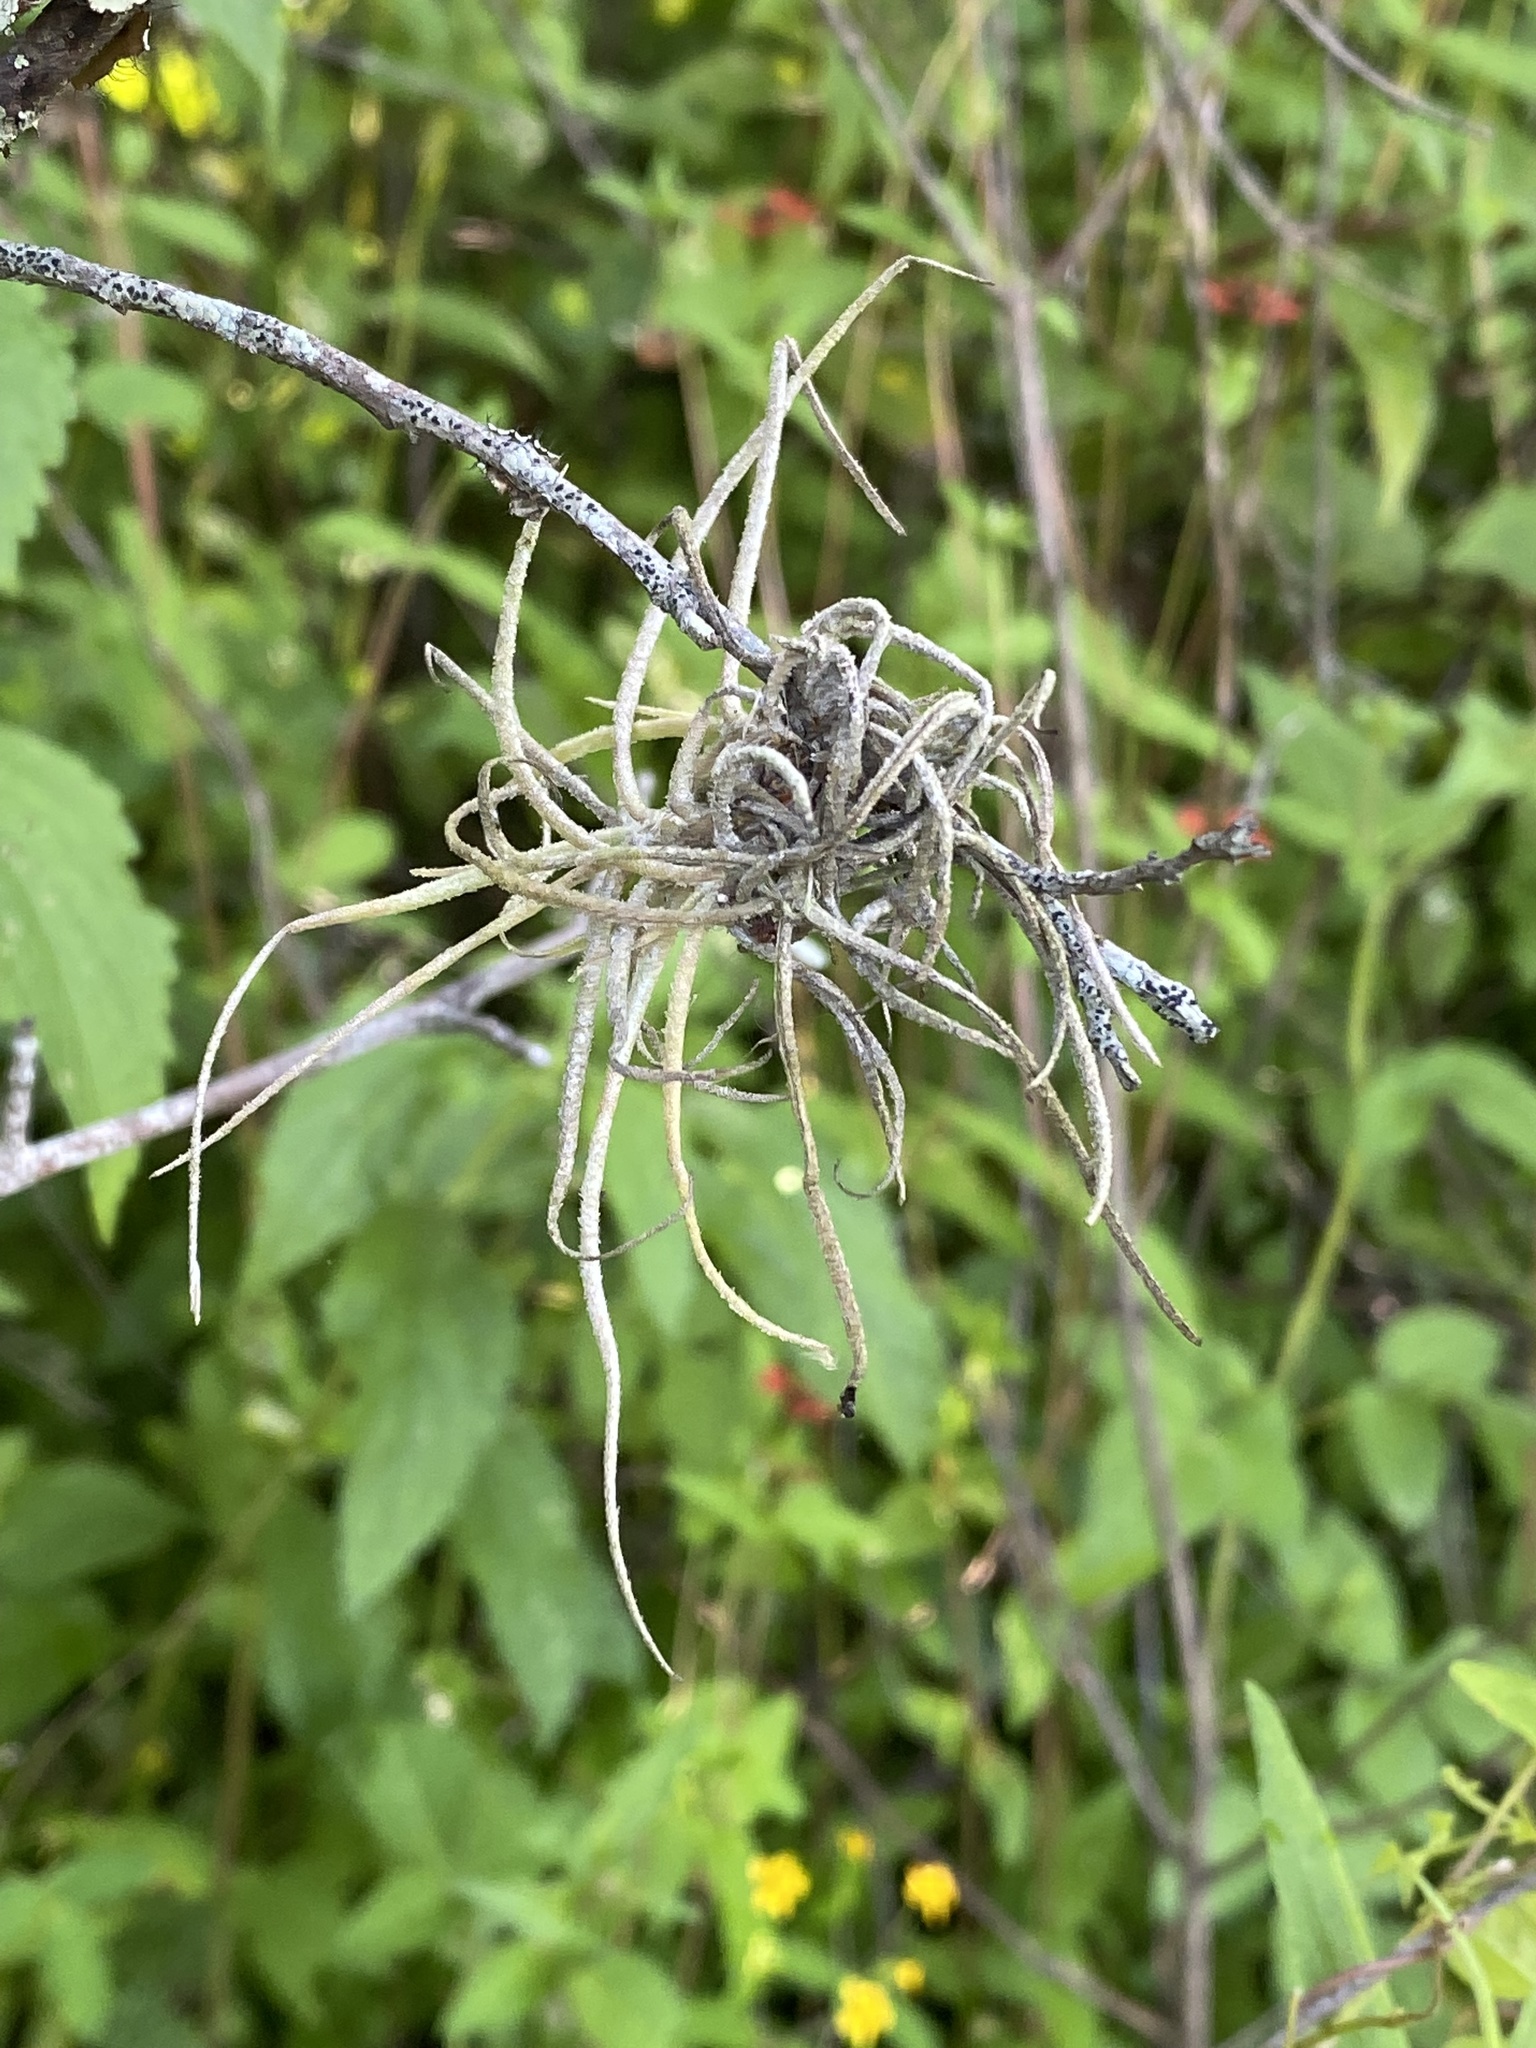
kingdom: Plantae
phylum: Tracheophyta
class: Liliopsida
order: Poales
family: Bromeliaceae
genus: Tillandsia
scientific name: Tillandsia recurvata
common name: Small ballmoss
